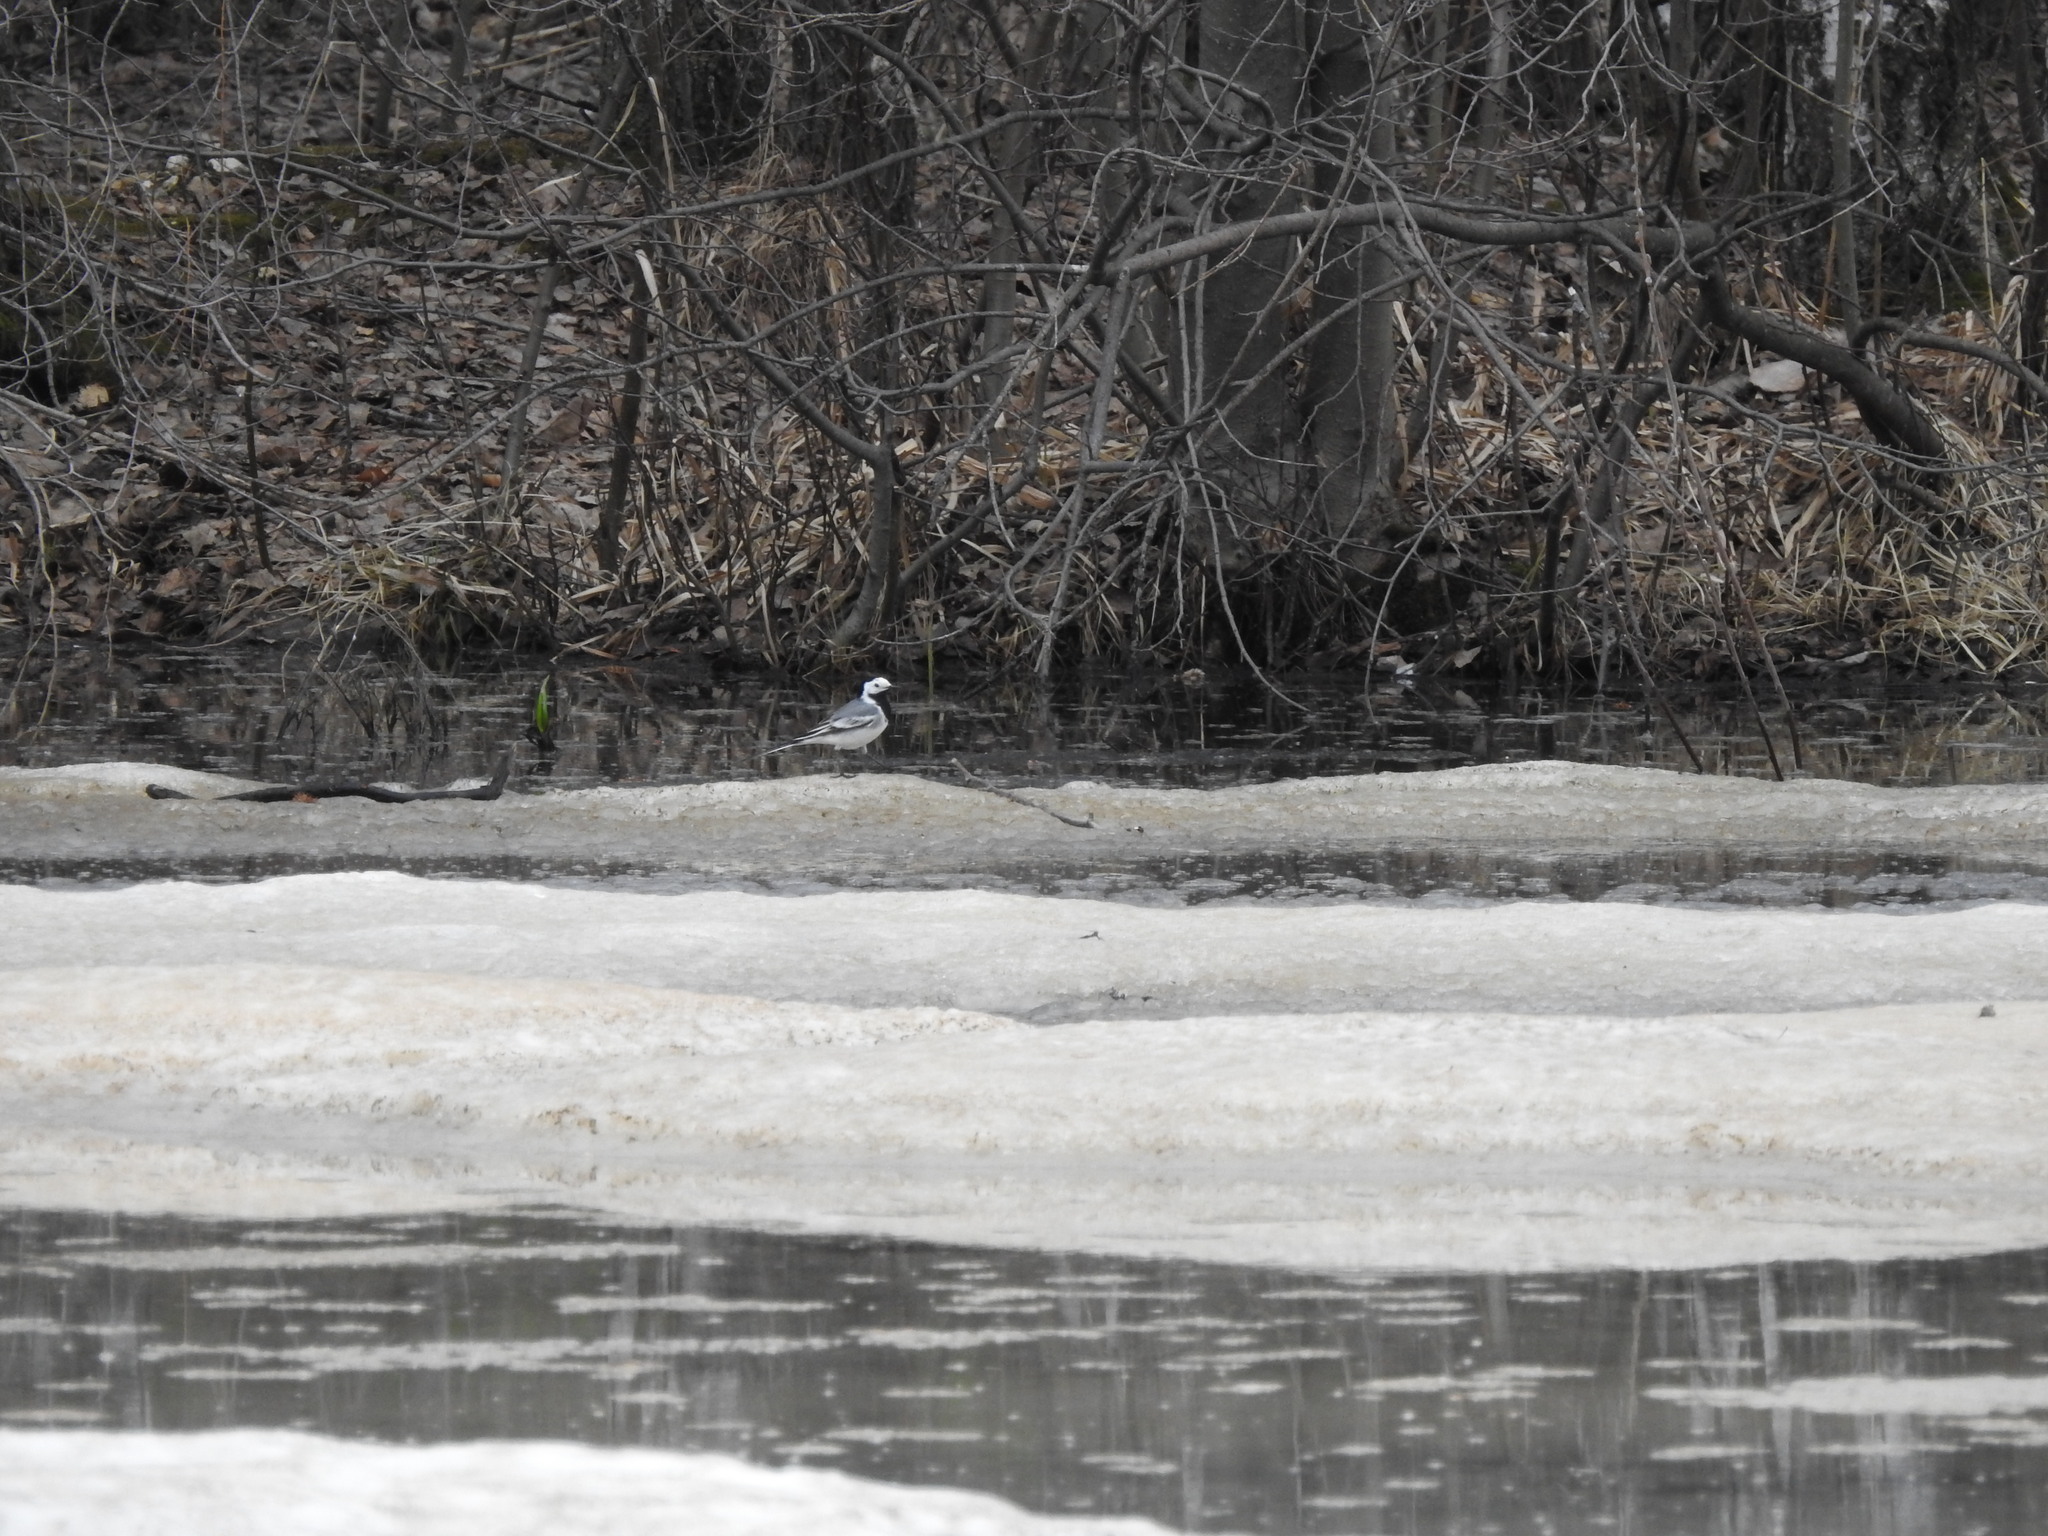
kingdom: Animalia
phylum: Chordata
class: Aves
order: Passeriformes
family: Motacillidae
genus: Motacilla
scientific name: Motacilla alba
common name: White wagtail
